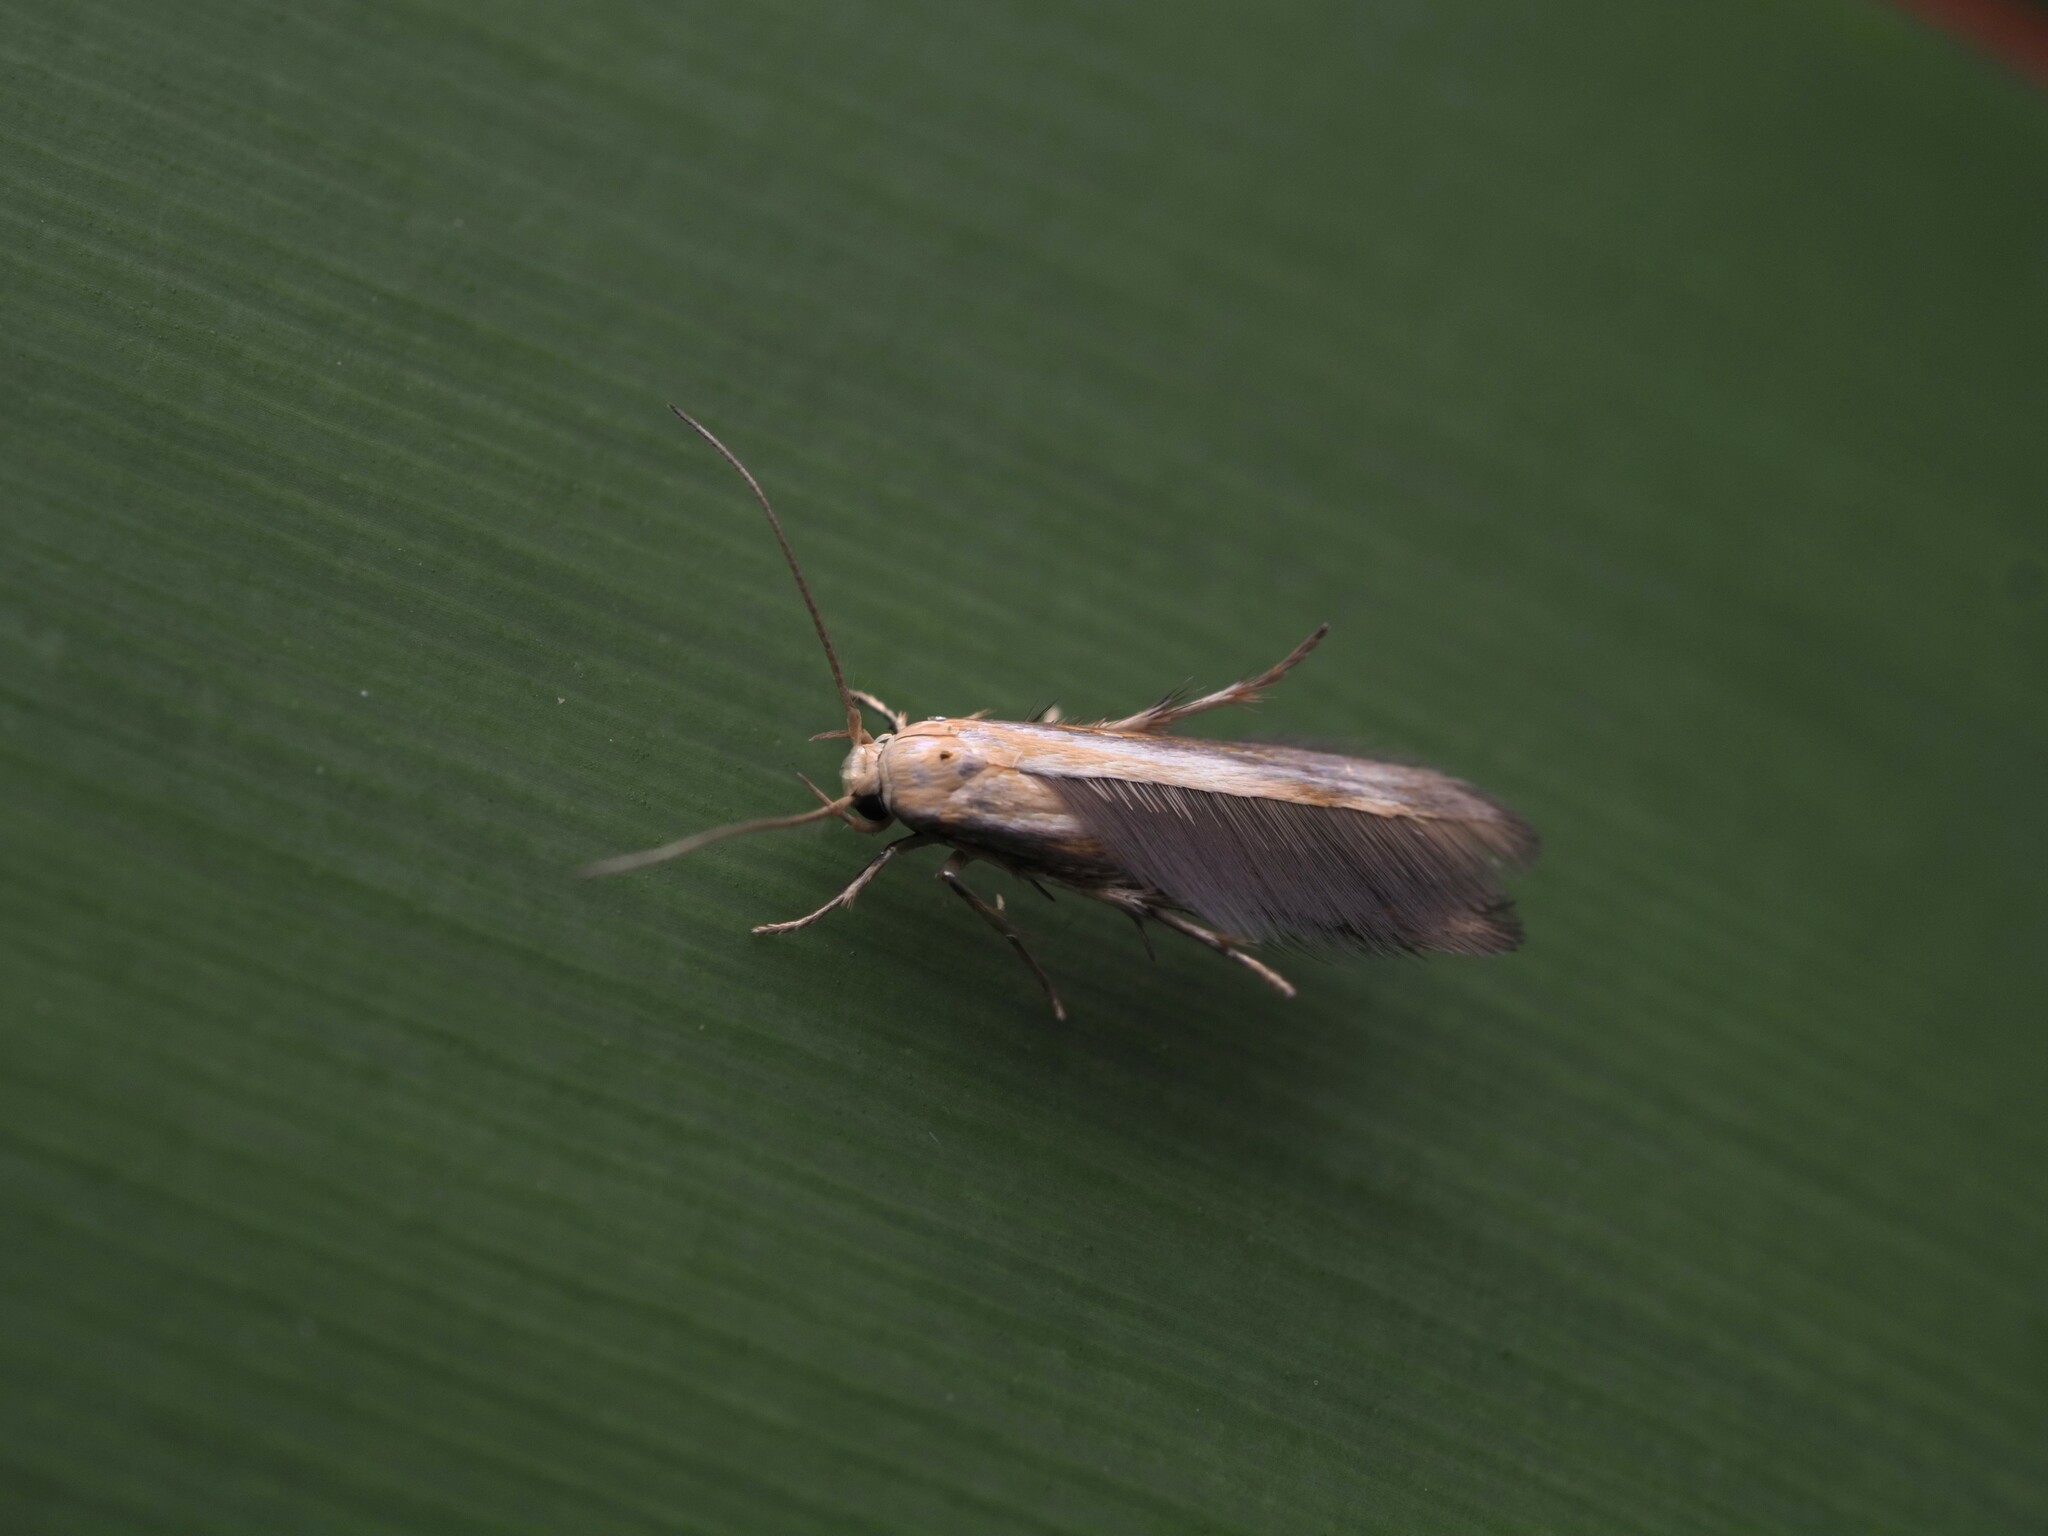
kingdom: Animalia
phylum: Arthropoda
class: Insecta
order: Lepidoptera
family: Stathmopodidae
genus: Stathmopoda
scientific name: Stathmopoda horticola
